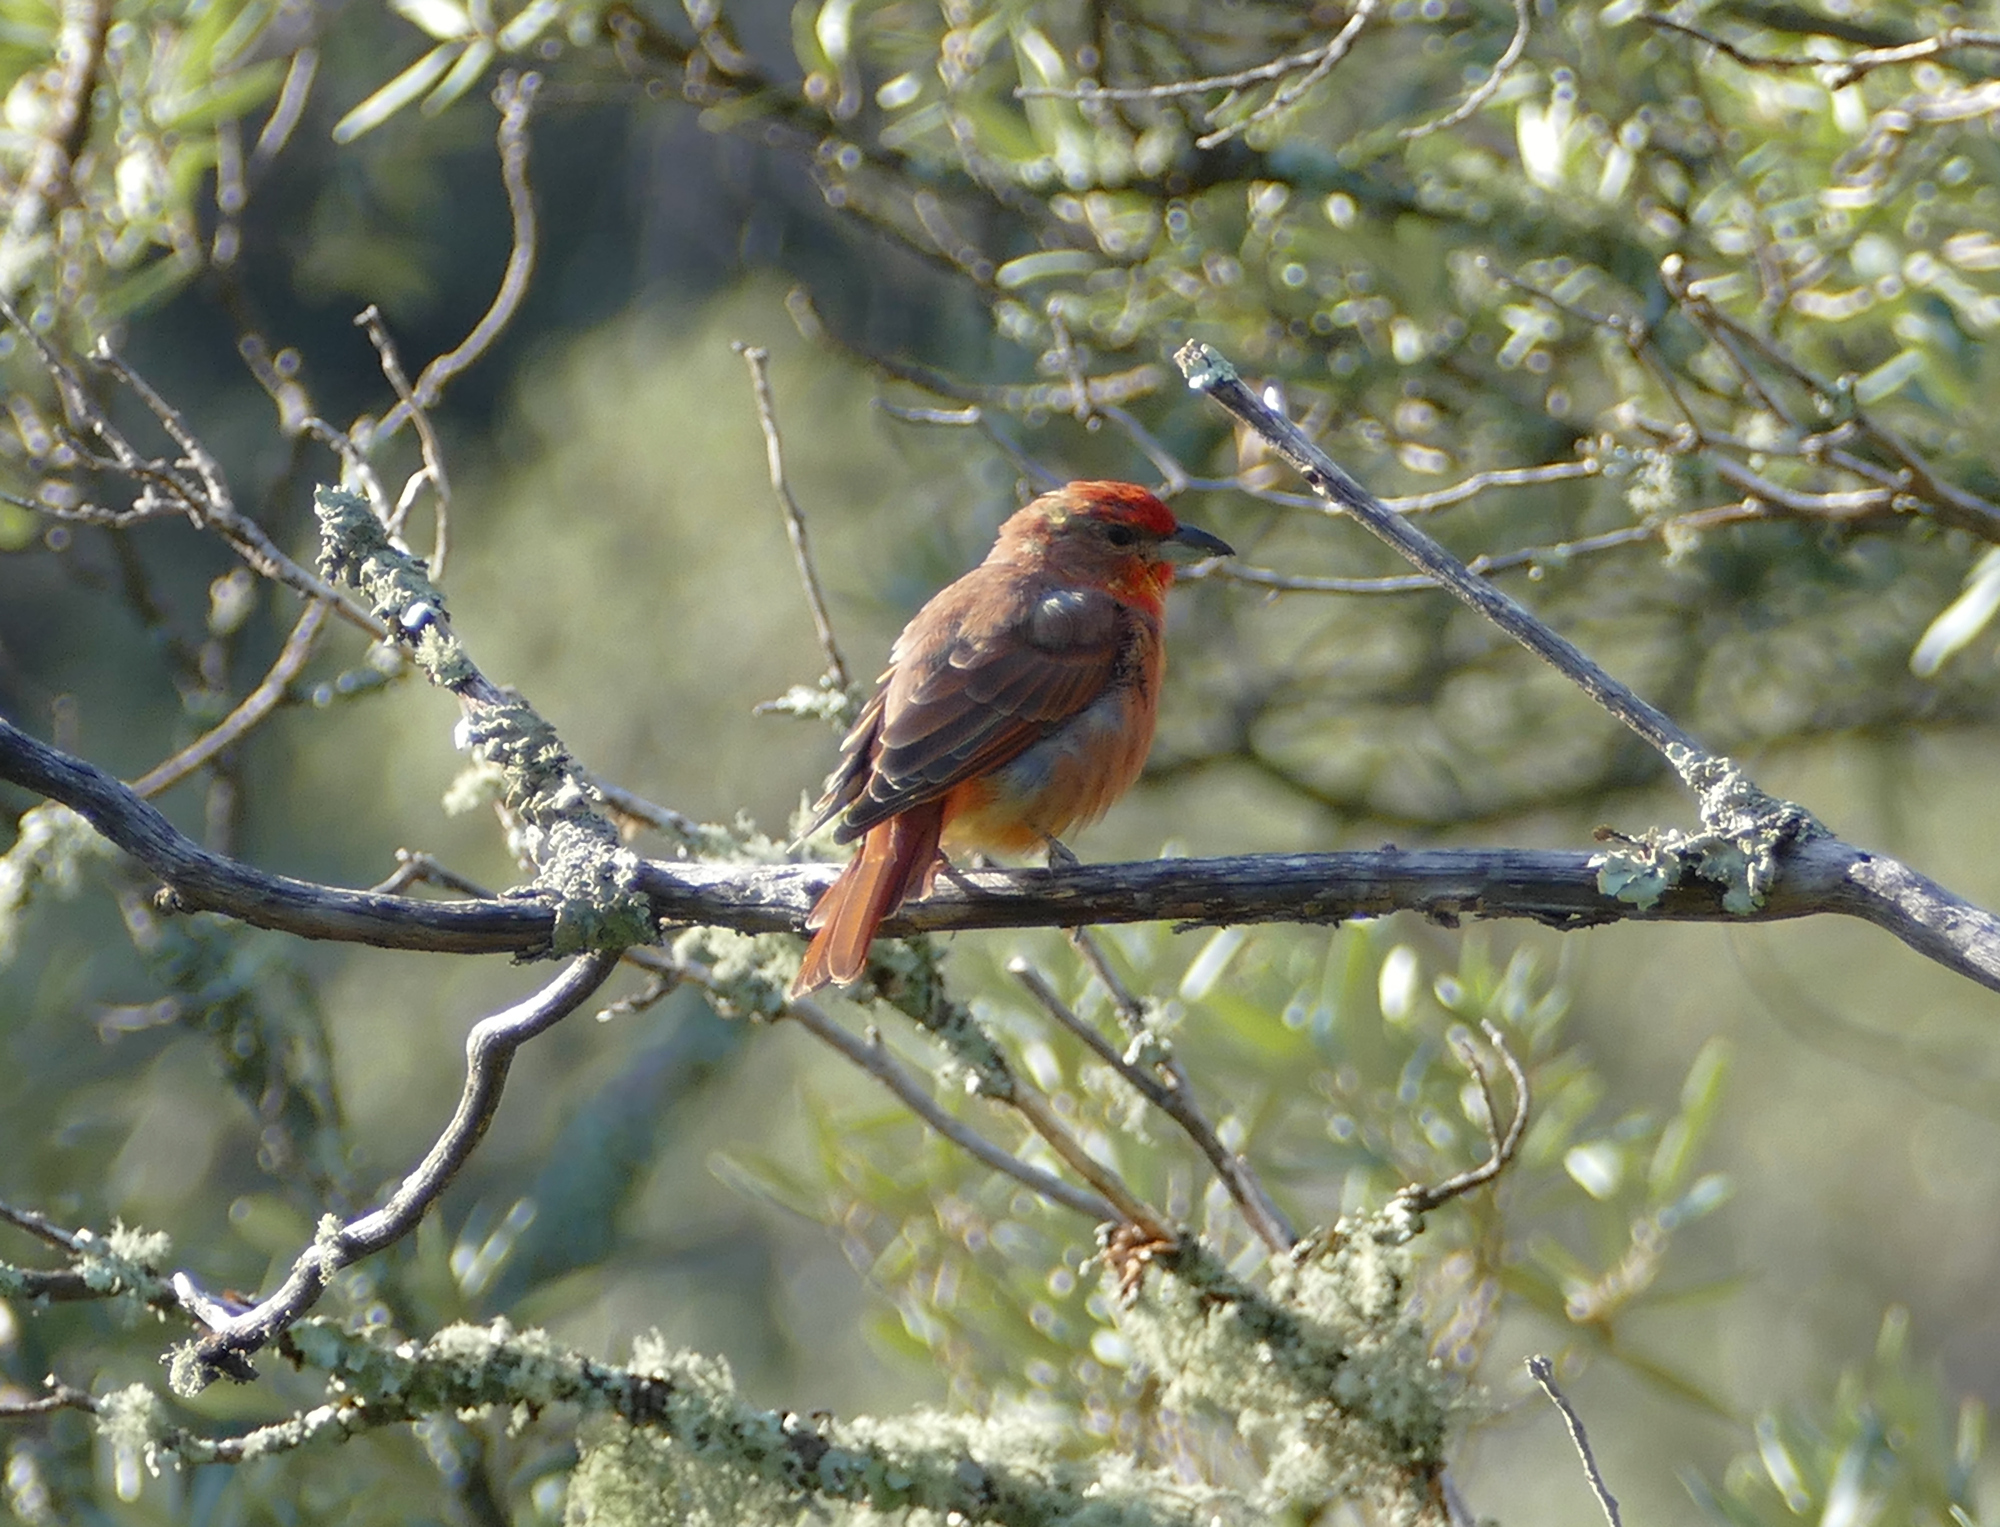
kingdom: Animalia
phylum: Chordata
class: Aves
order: Passeriformes
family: Cardinalidae
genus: Piranga
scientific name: Piranga flava
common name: Red tanager
